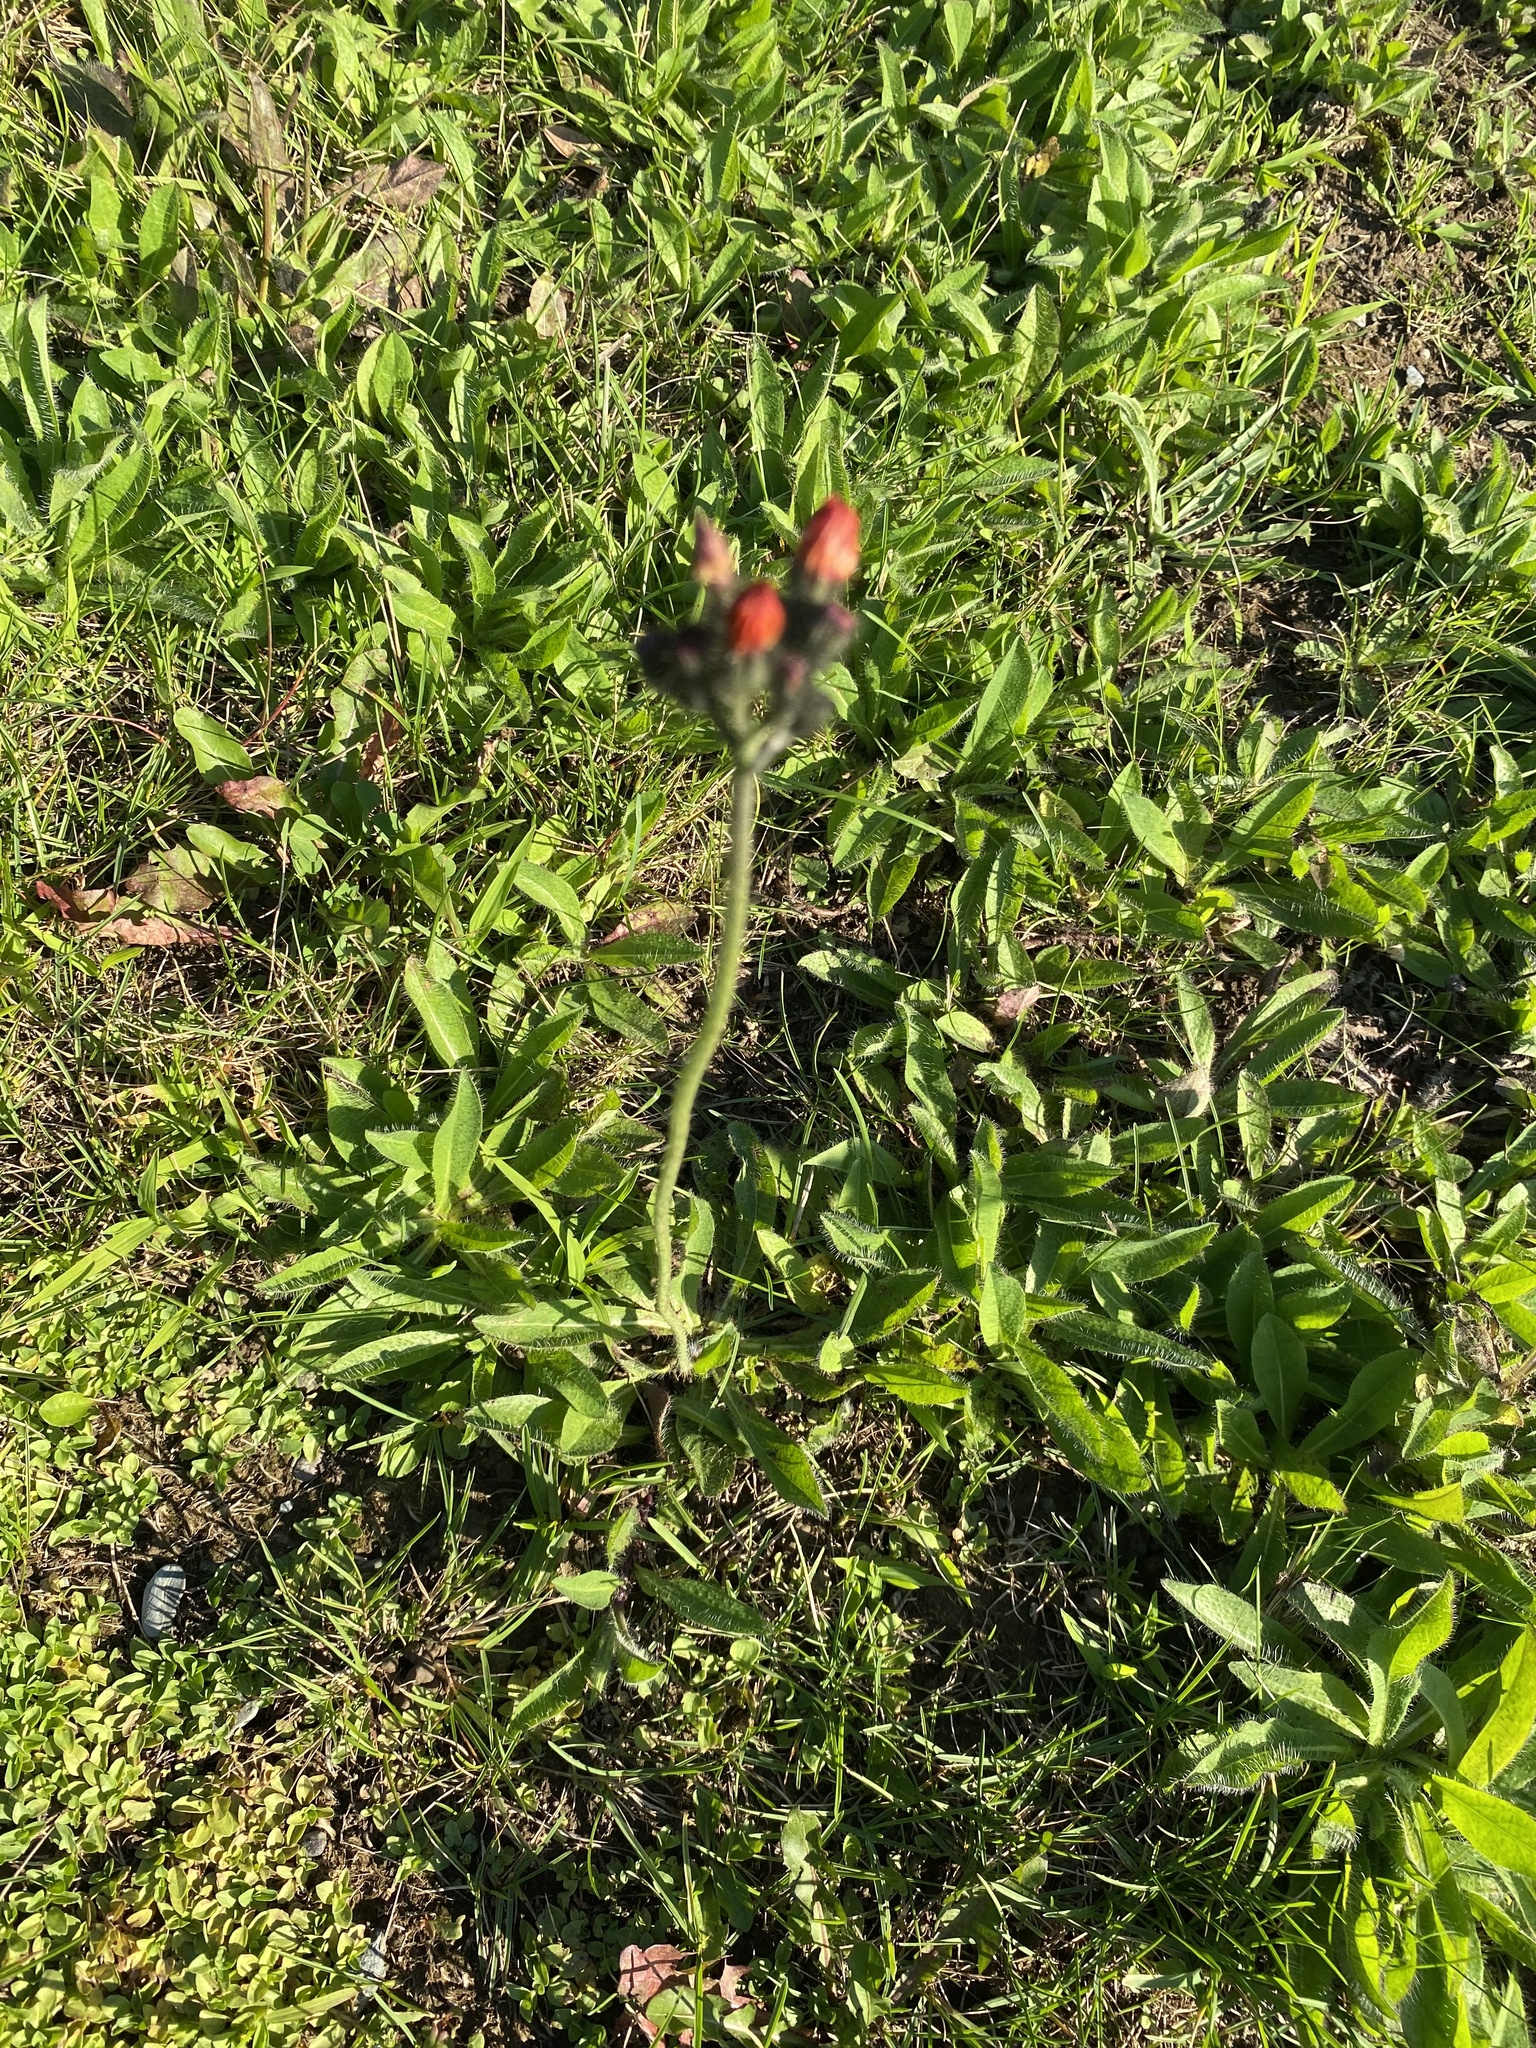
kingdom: Plantae
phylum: Tracheophyta
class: Magnoliopsida
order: Asterales
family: Asteraceae
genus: Pilosella
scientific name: Pilosella aurantiaca
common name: Fox-and-cubs
